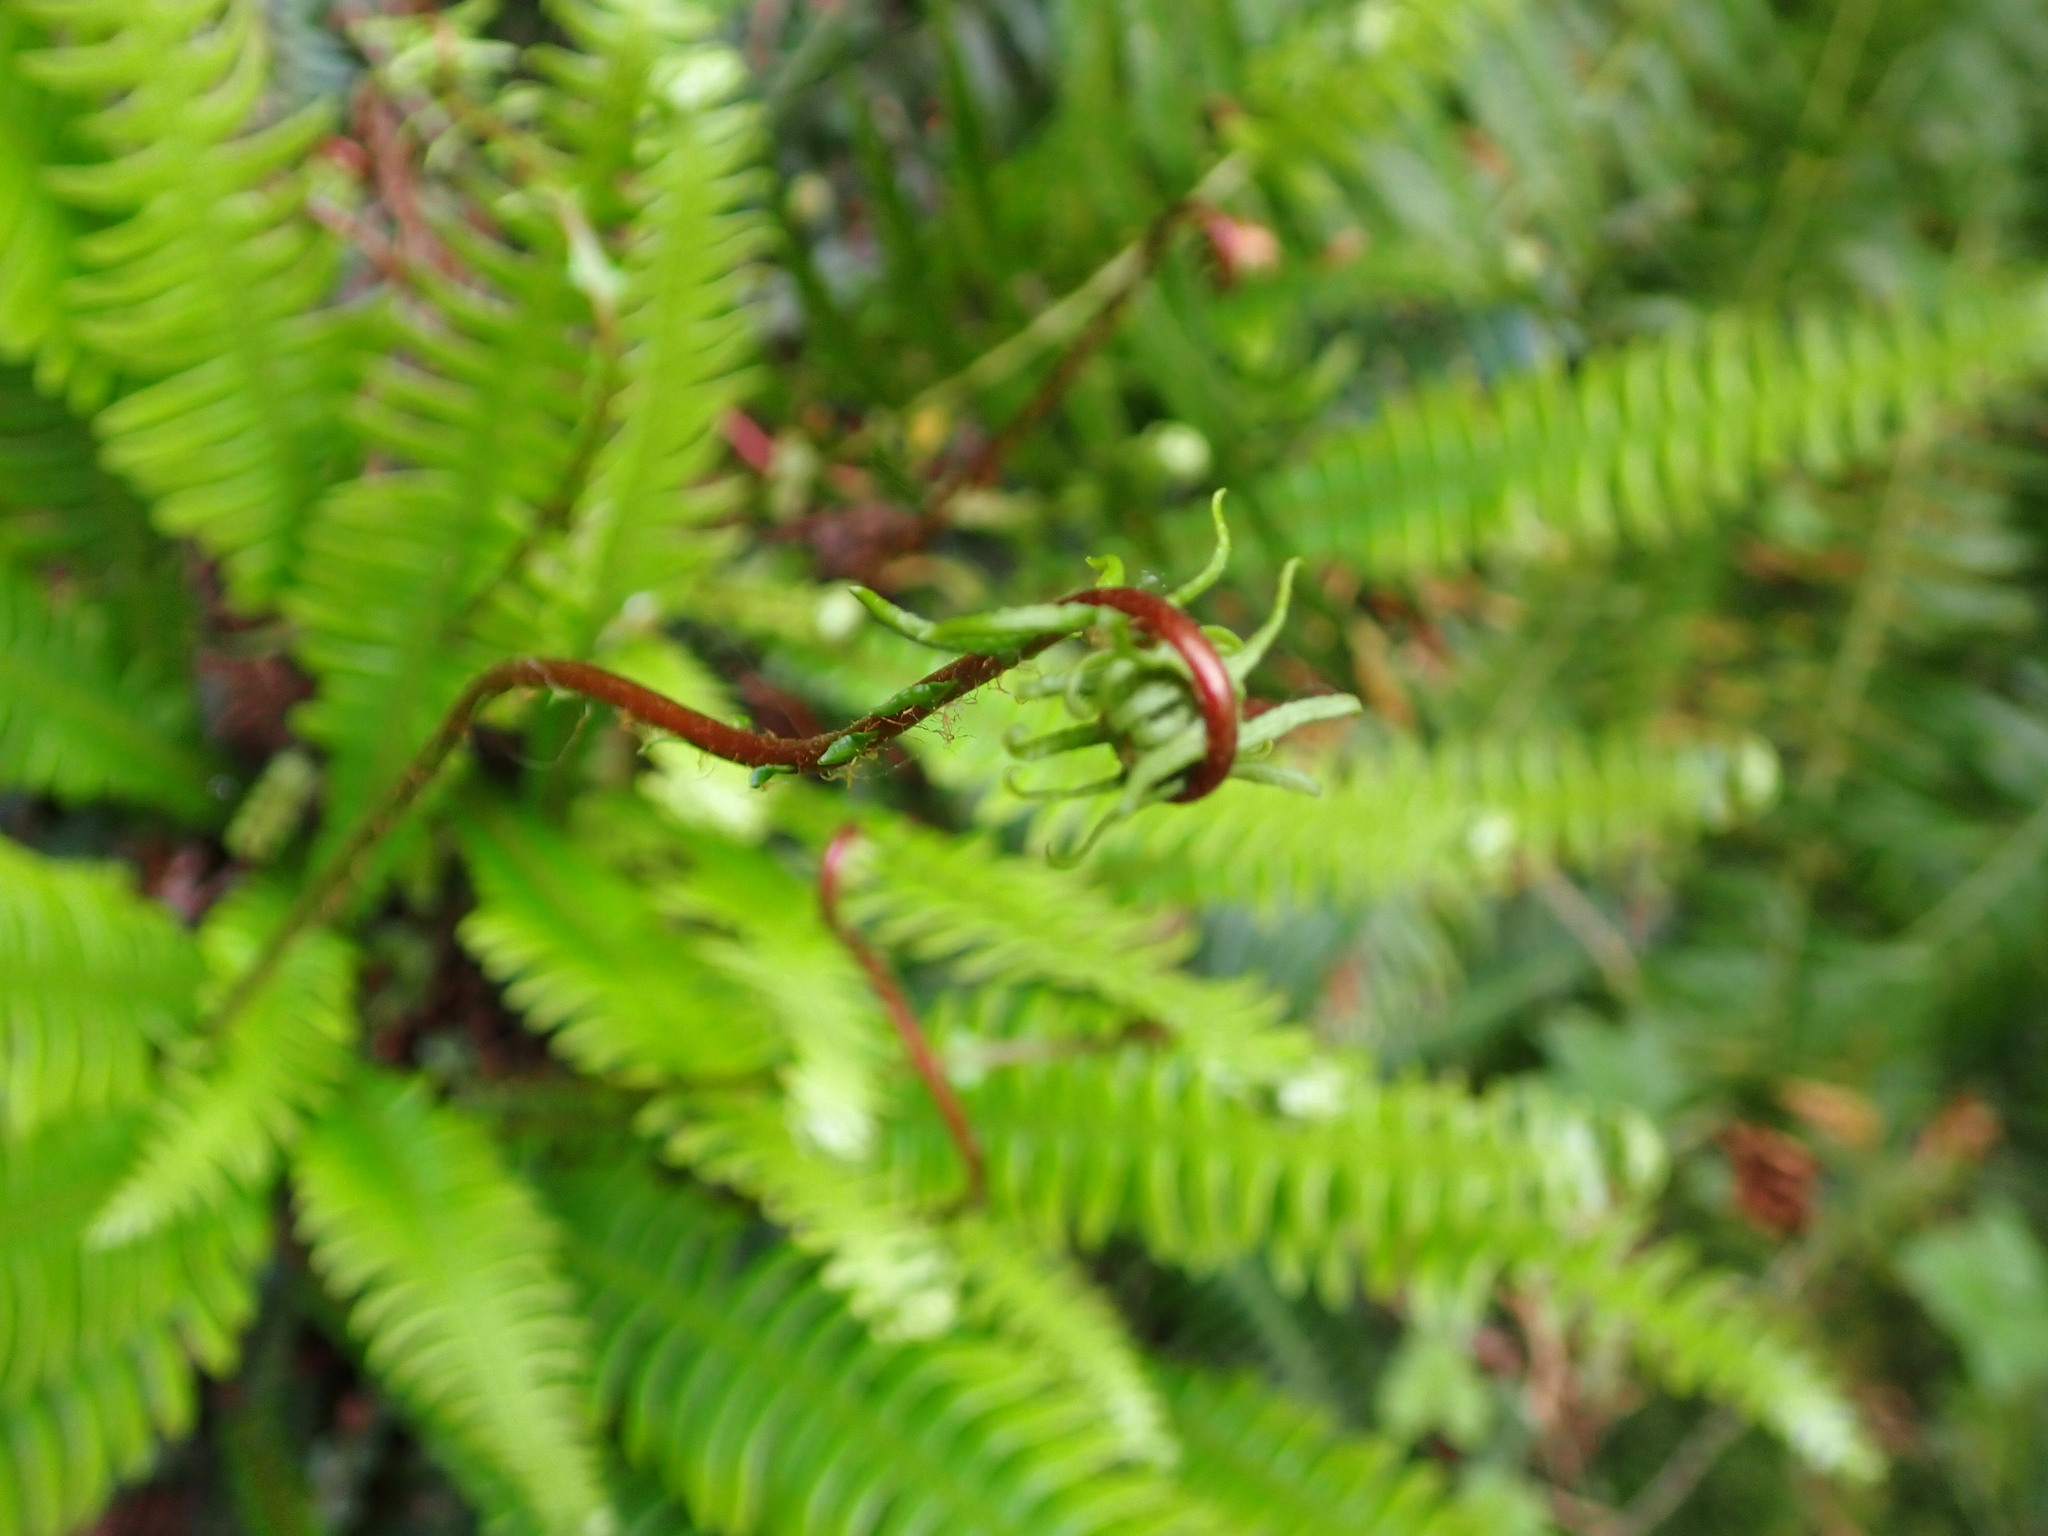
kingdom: Plantae
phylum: Tracheophyta
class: Polypodiopsida
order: Polypodiales
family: Blechnaceae
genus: Struthiopteris
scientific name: Struthiopteris spicant
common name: Deer fern
